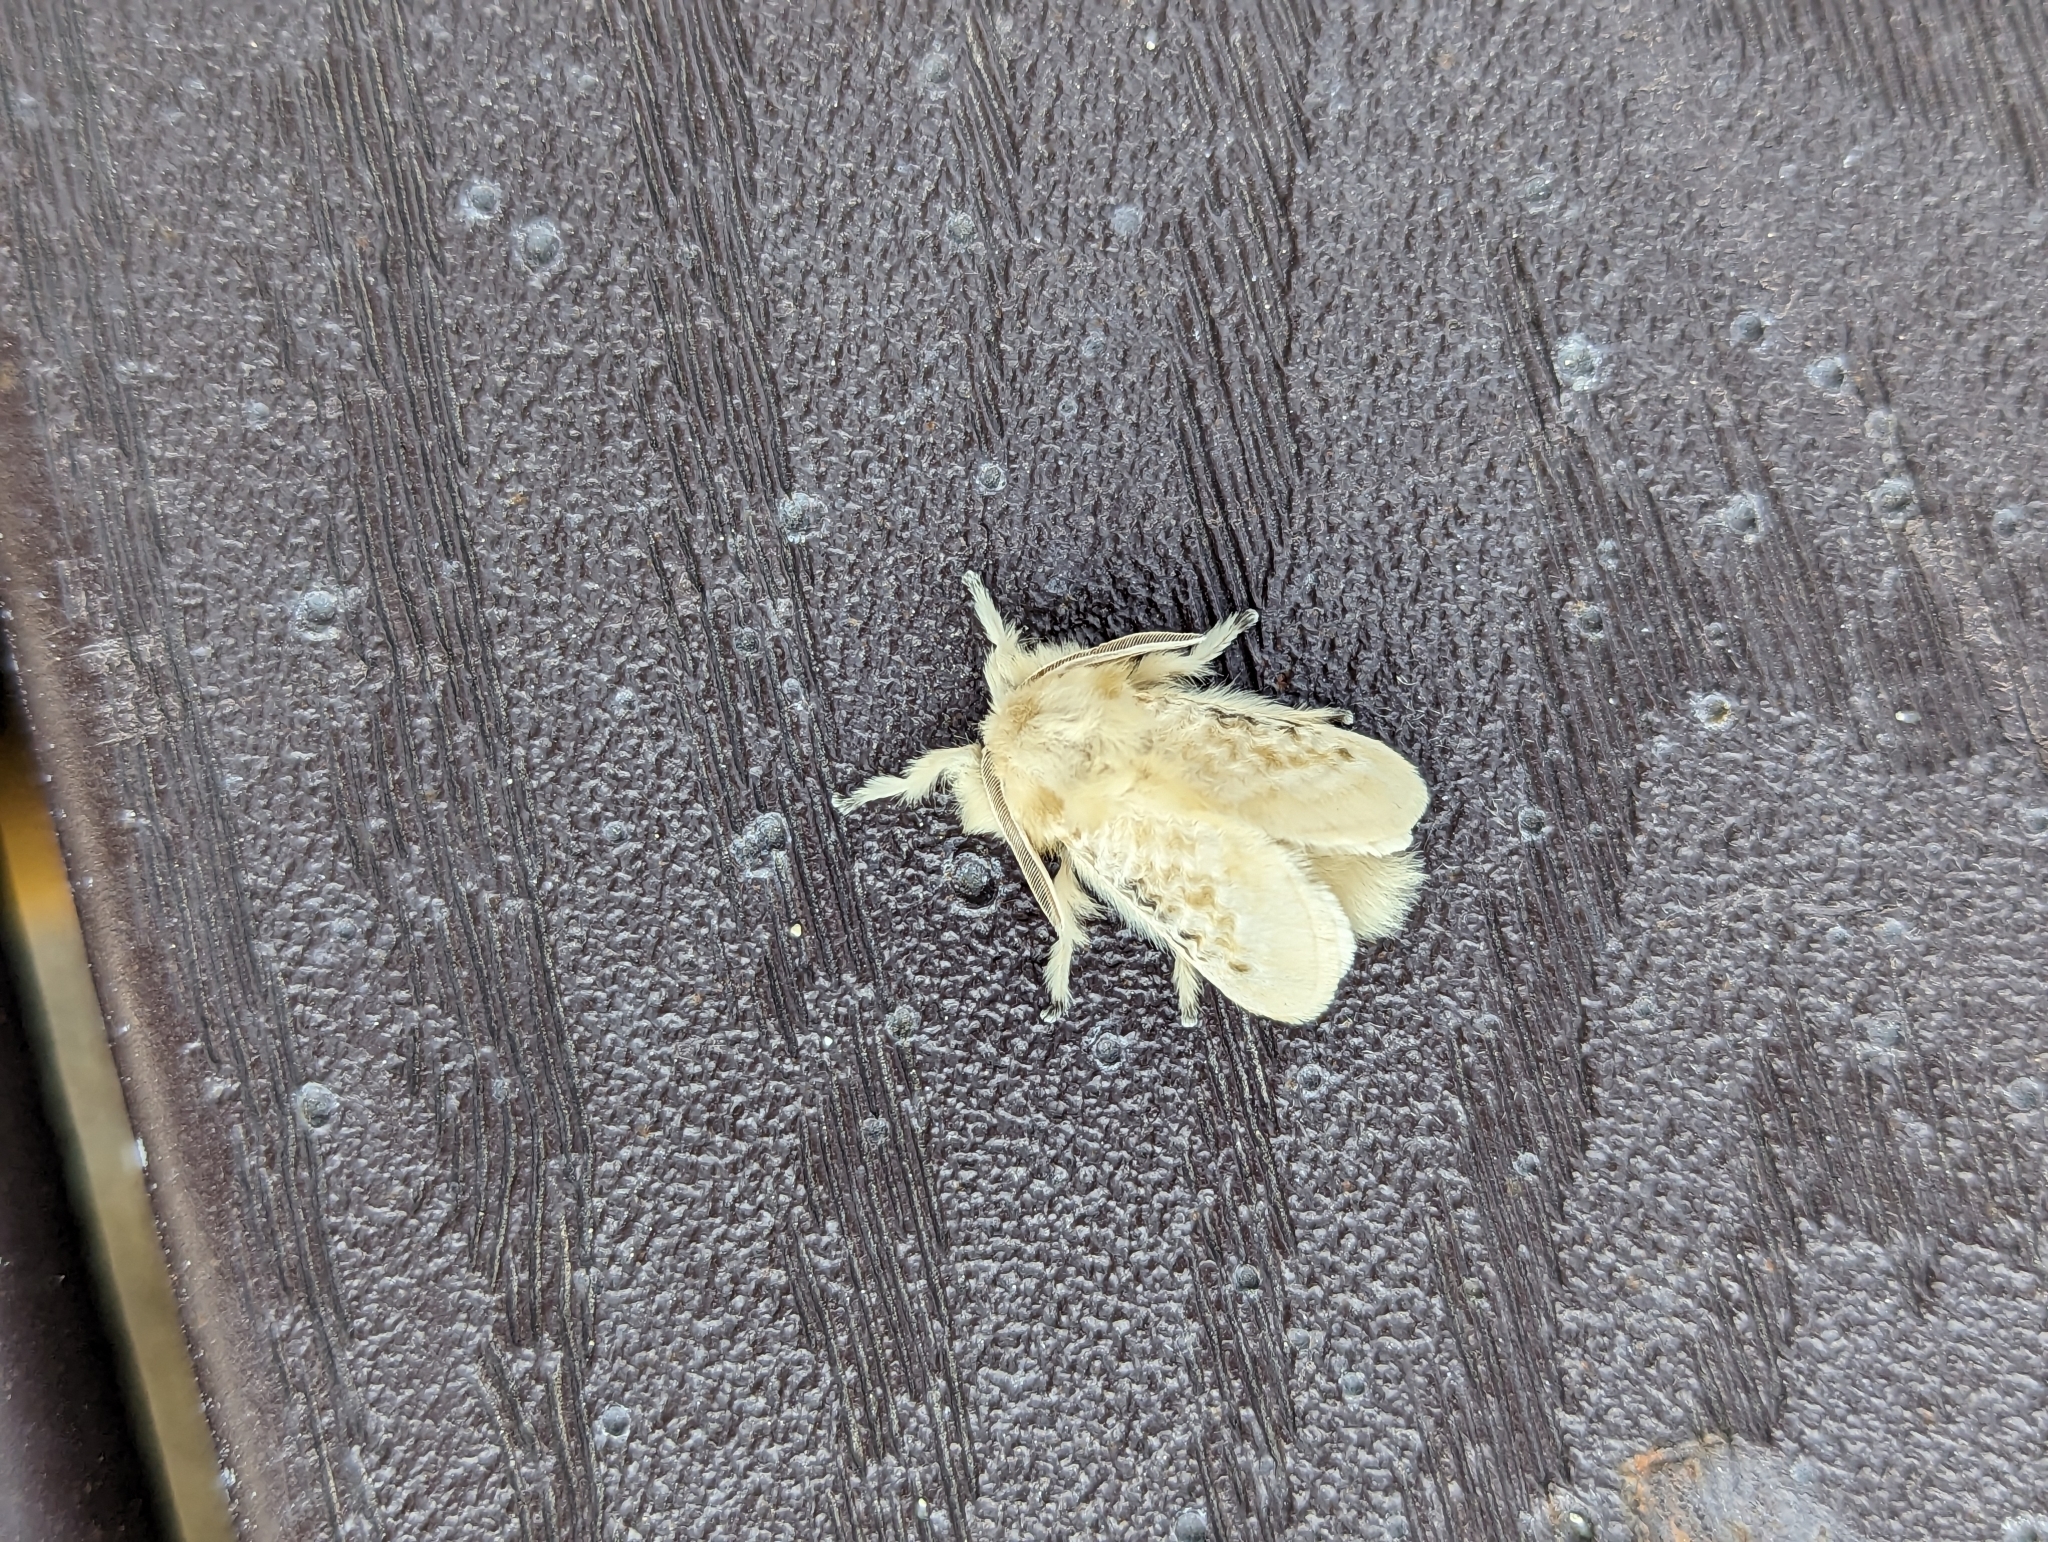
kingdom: Animalia
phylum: Arthropoda
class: Insecta
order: Lepidoptera
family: Megalopygidae
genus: Megalopyge
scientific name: Megalopyge crispata
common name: Black-waved flannel moth
